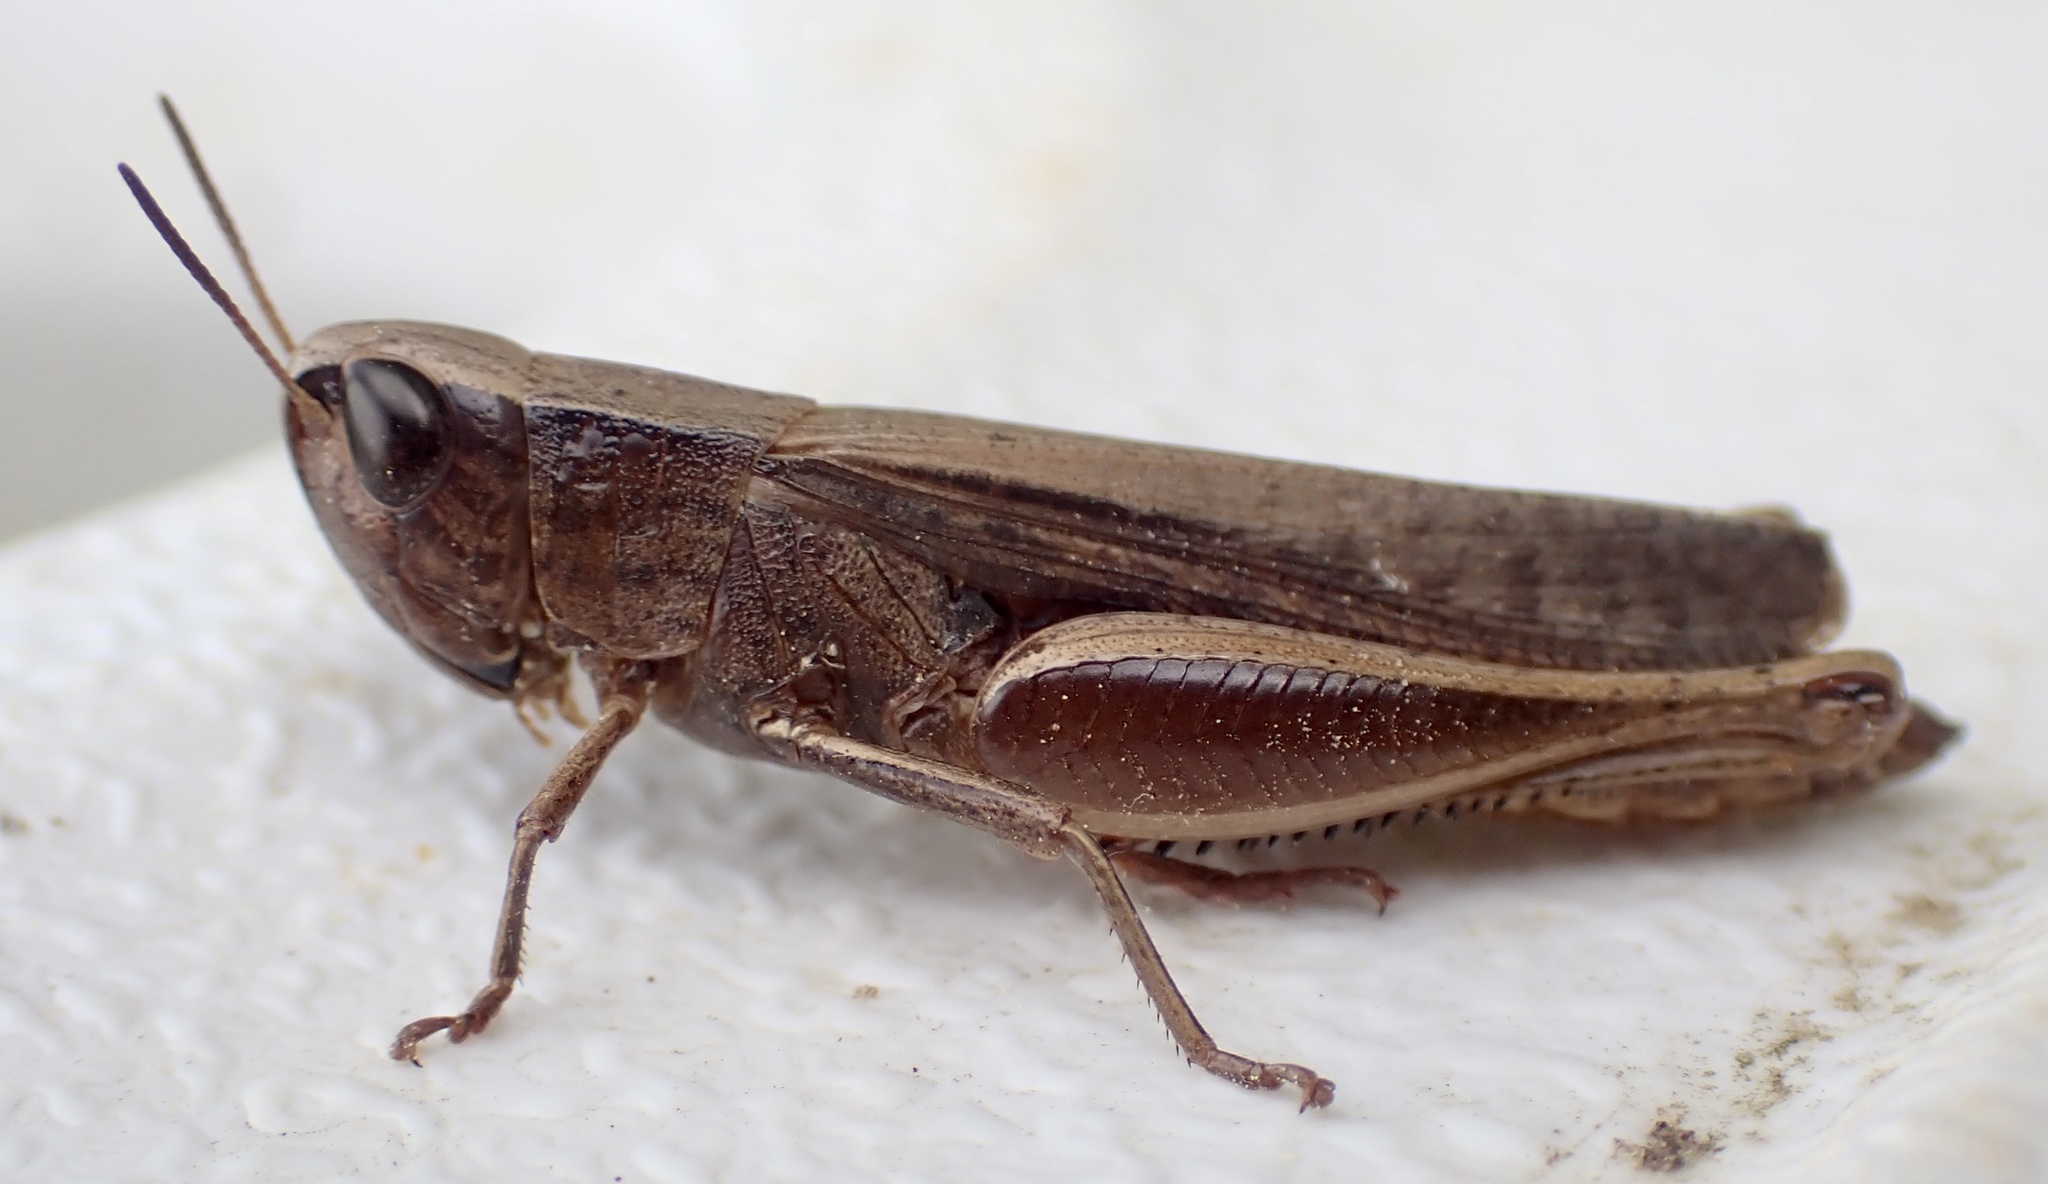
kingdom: Animalia
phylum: Arthropoda
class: Insecta
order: Orthoptera
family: Acrididae
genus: Amblytropidia
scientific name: Amblytropidia mysteca
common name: Brown winter grasshopper
